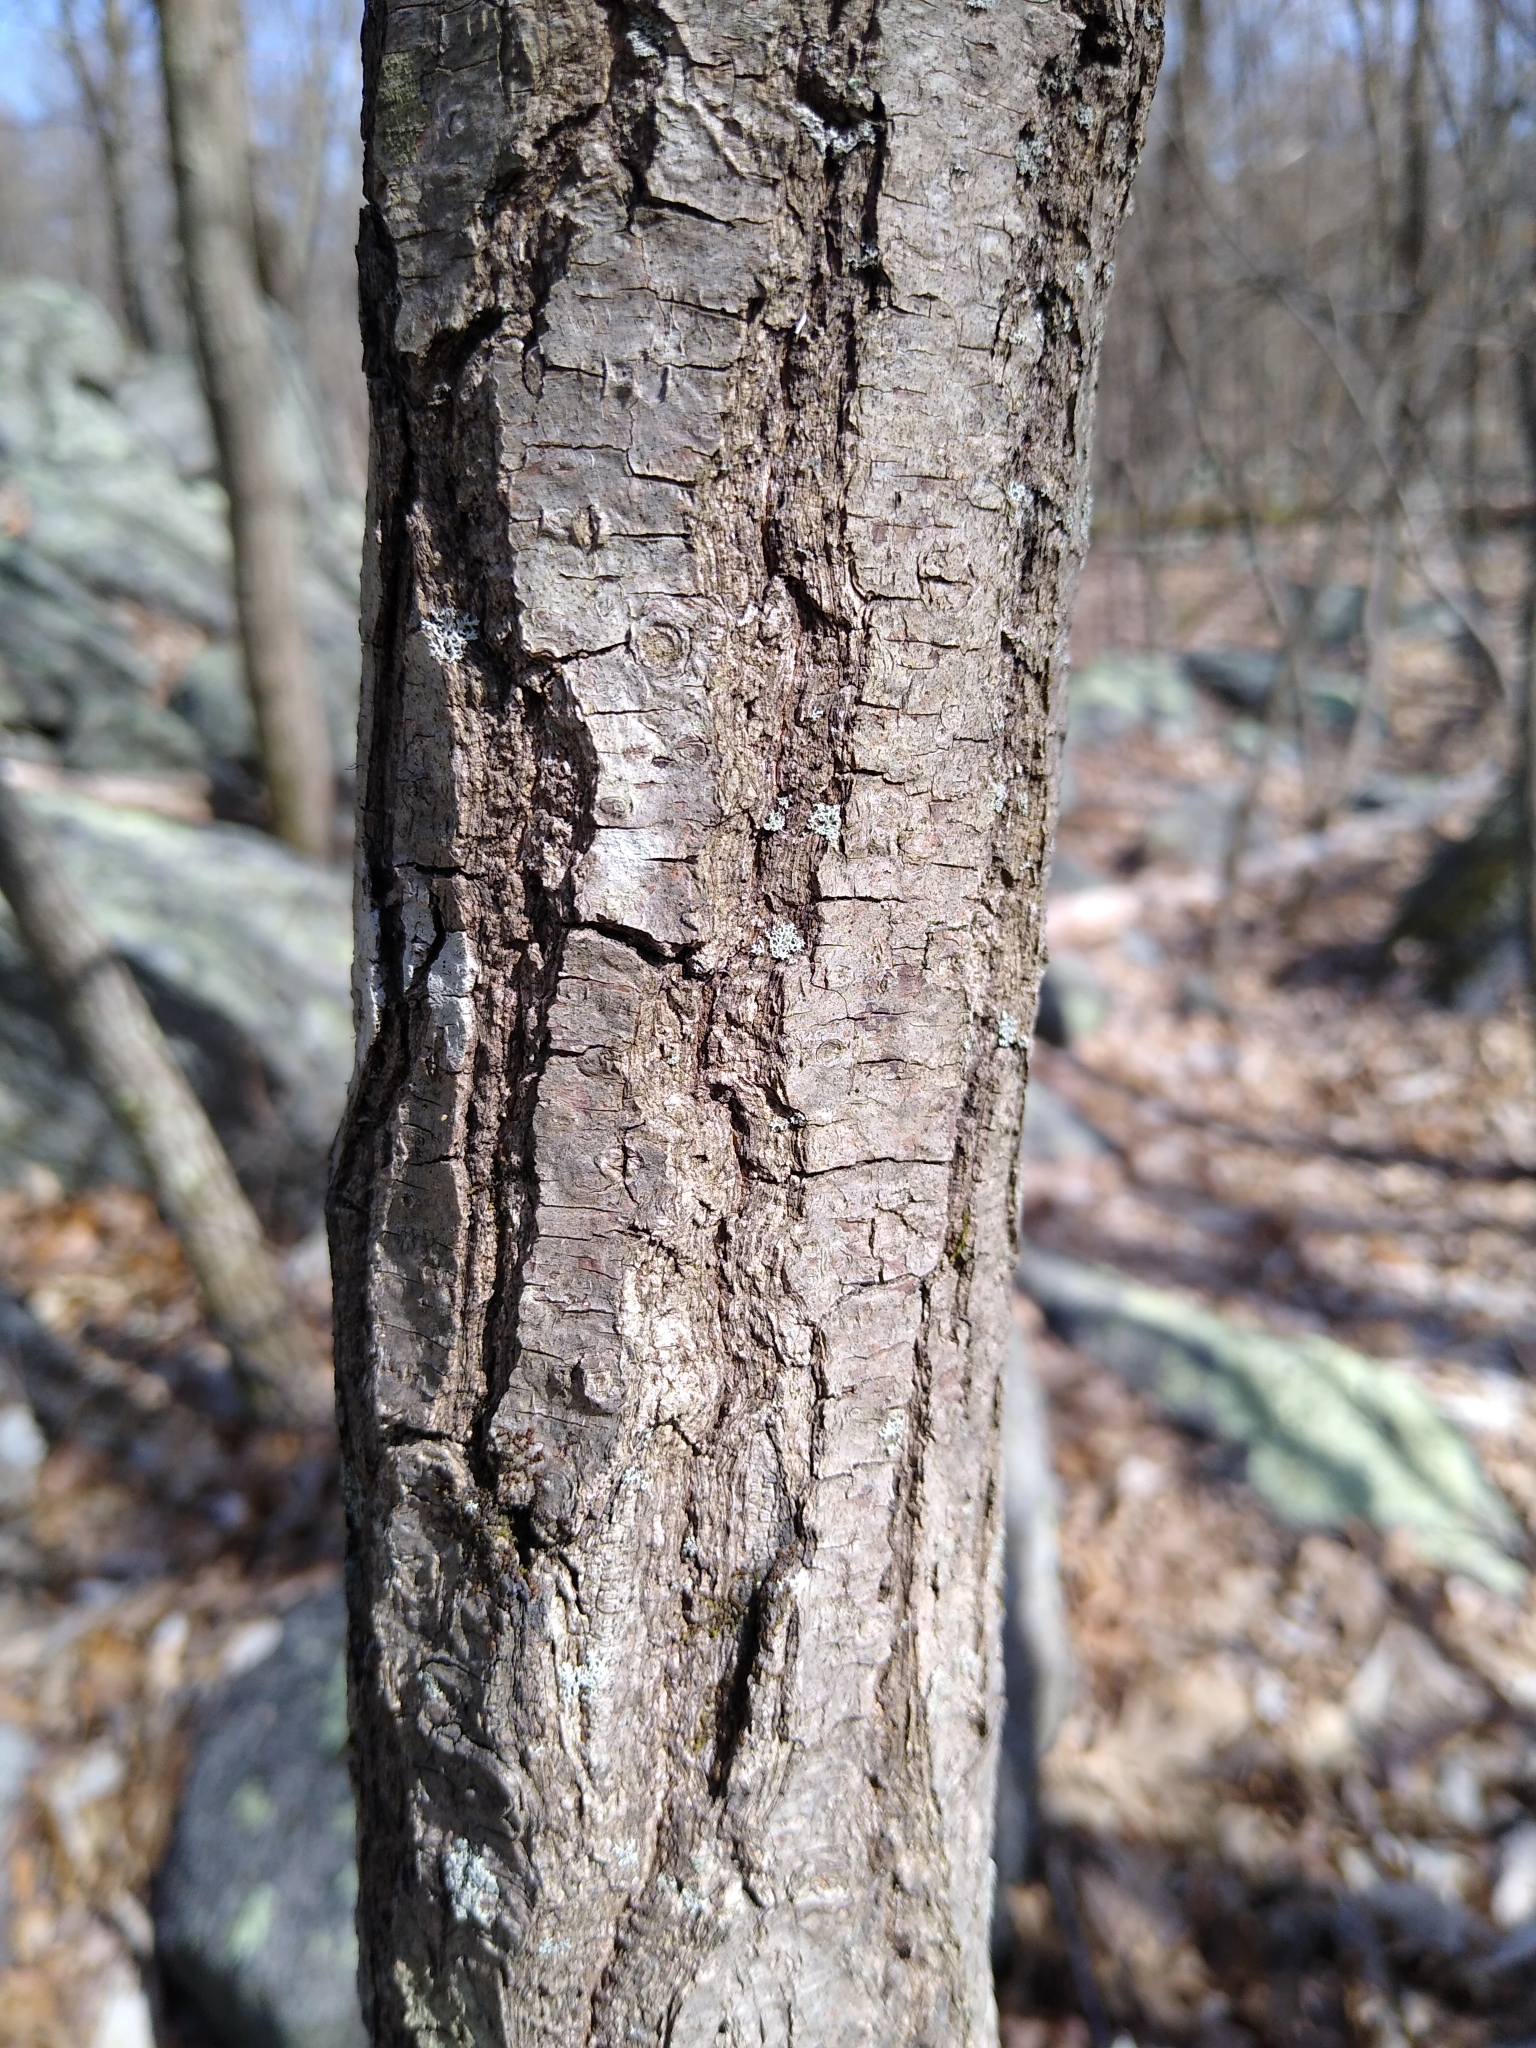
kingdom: Plantae
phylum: Tracheophyta
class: Magnoliopsida
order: Fagales
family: Fagaceae
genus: Quercus
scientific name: Quercus alba
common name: White oak
